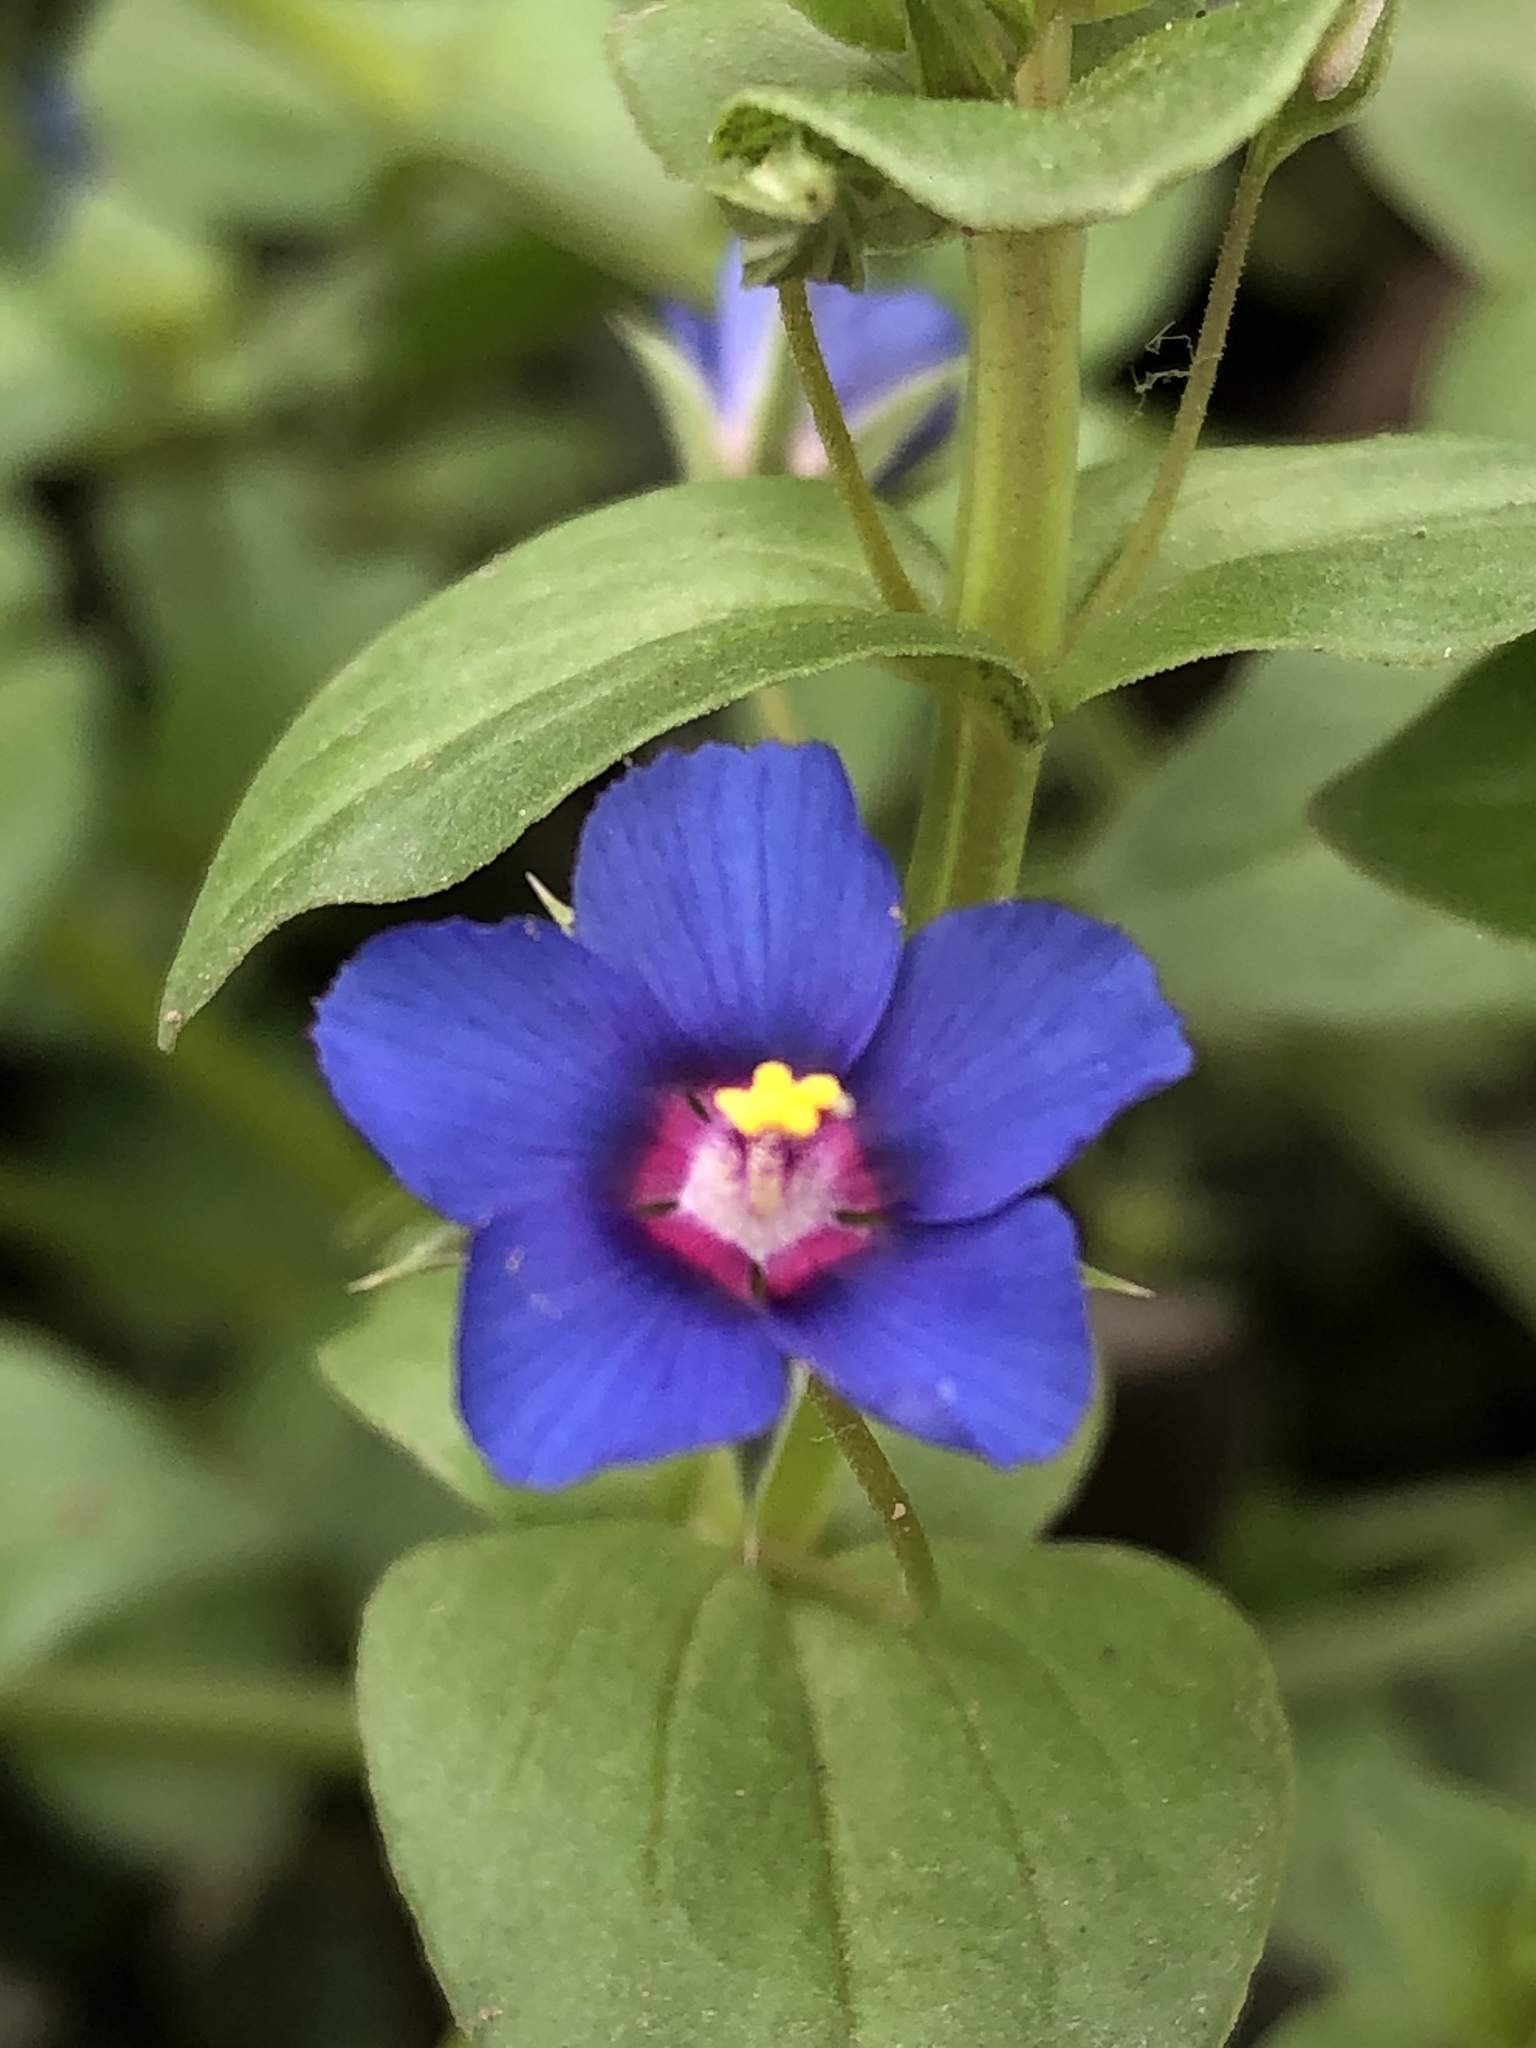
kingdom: Plantae
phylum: Tracheophyta
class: Magnoliopsida
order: Ericales
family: Primulaceae
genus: Lysimachia
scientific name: Lysimachia arvensis
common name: Scarlet pimpernel
